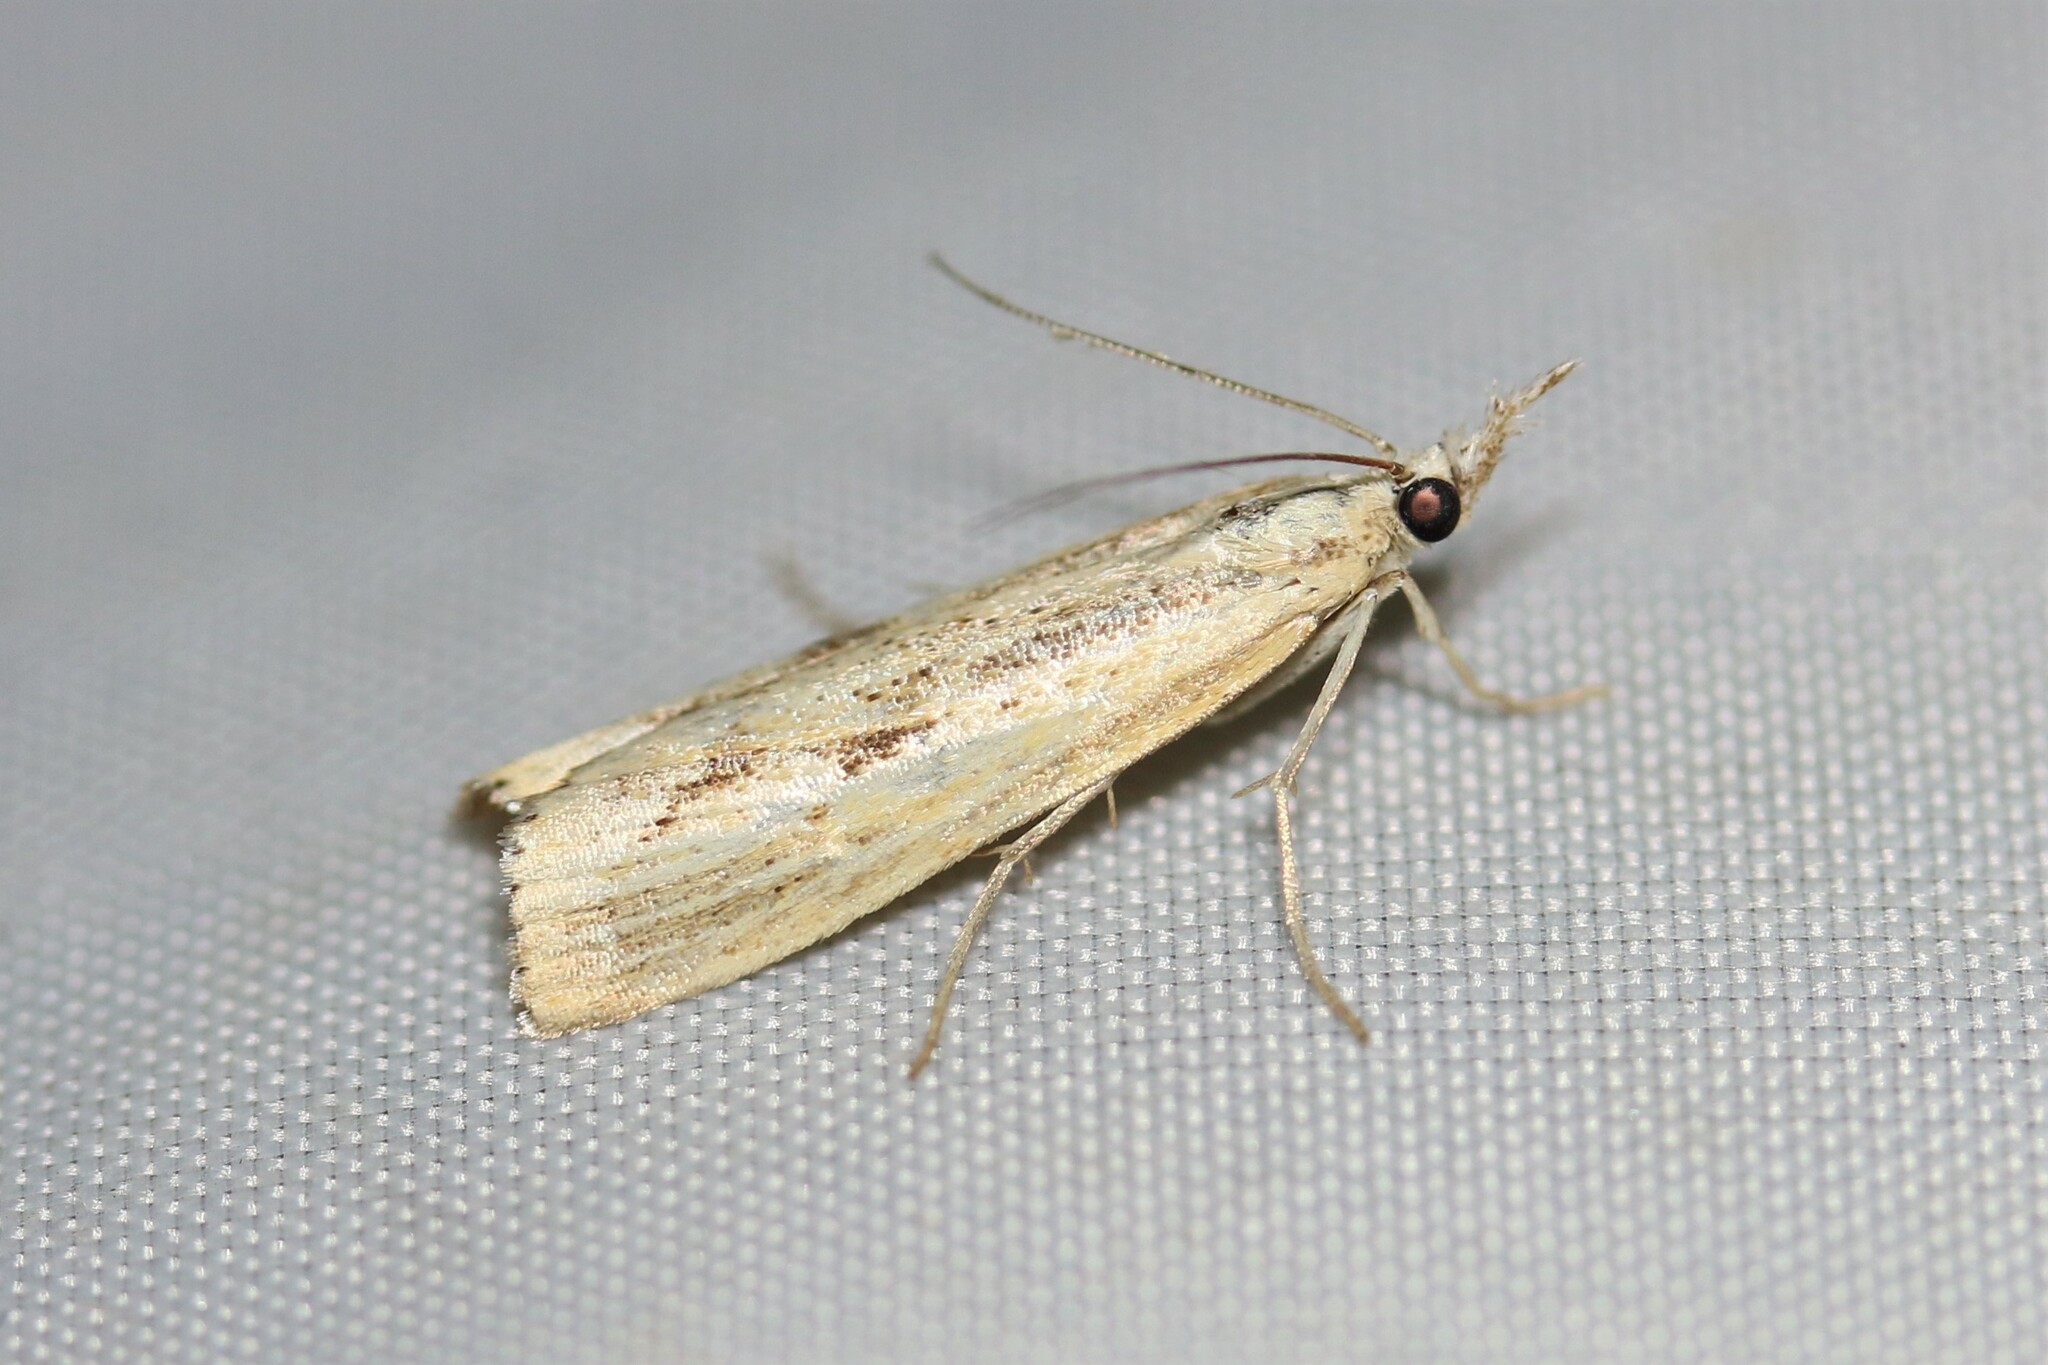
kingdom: Animalia
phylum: Arthropoda
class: Insecta
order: Lepidoptera
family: Crambidae
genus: Agriphila
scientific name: Agriphila inquinatella
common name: Barred grass-veneer
